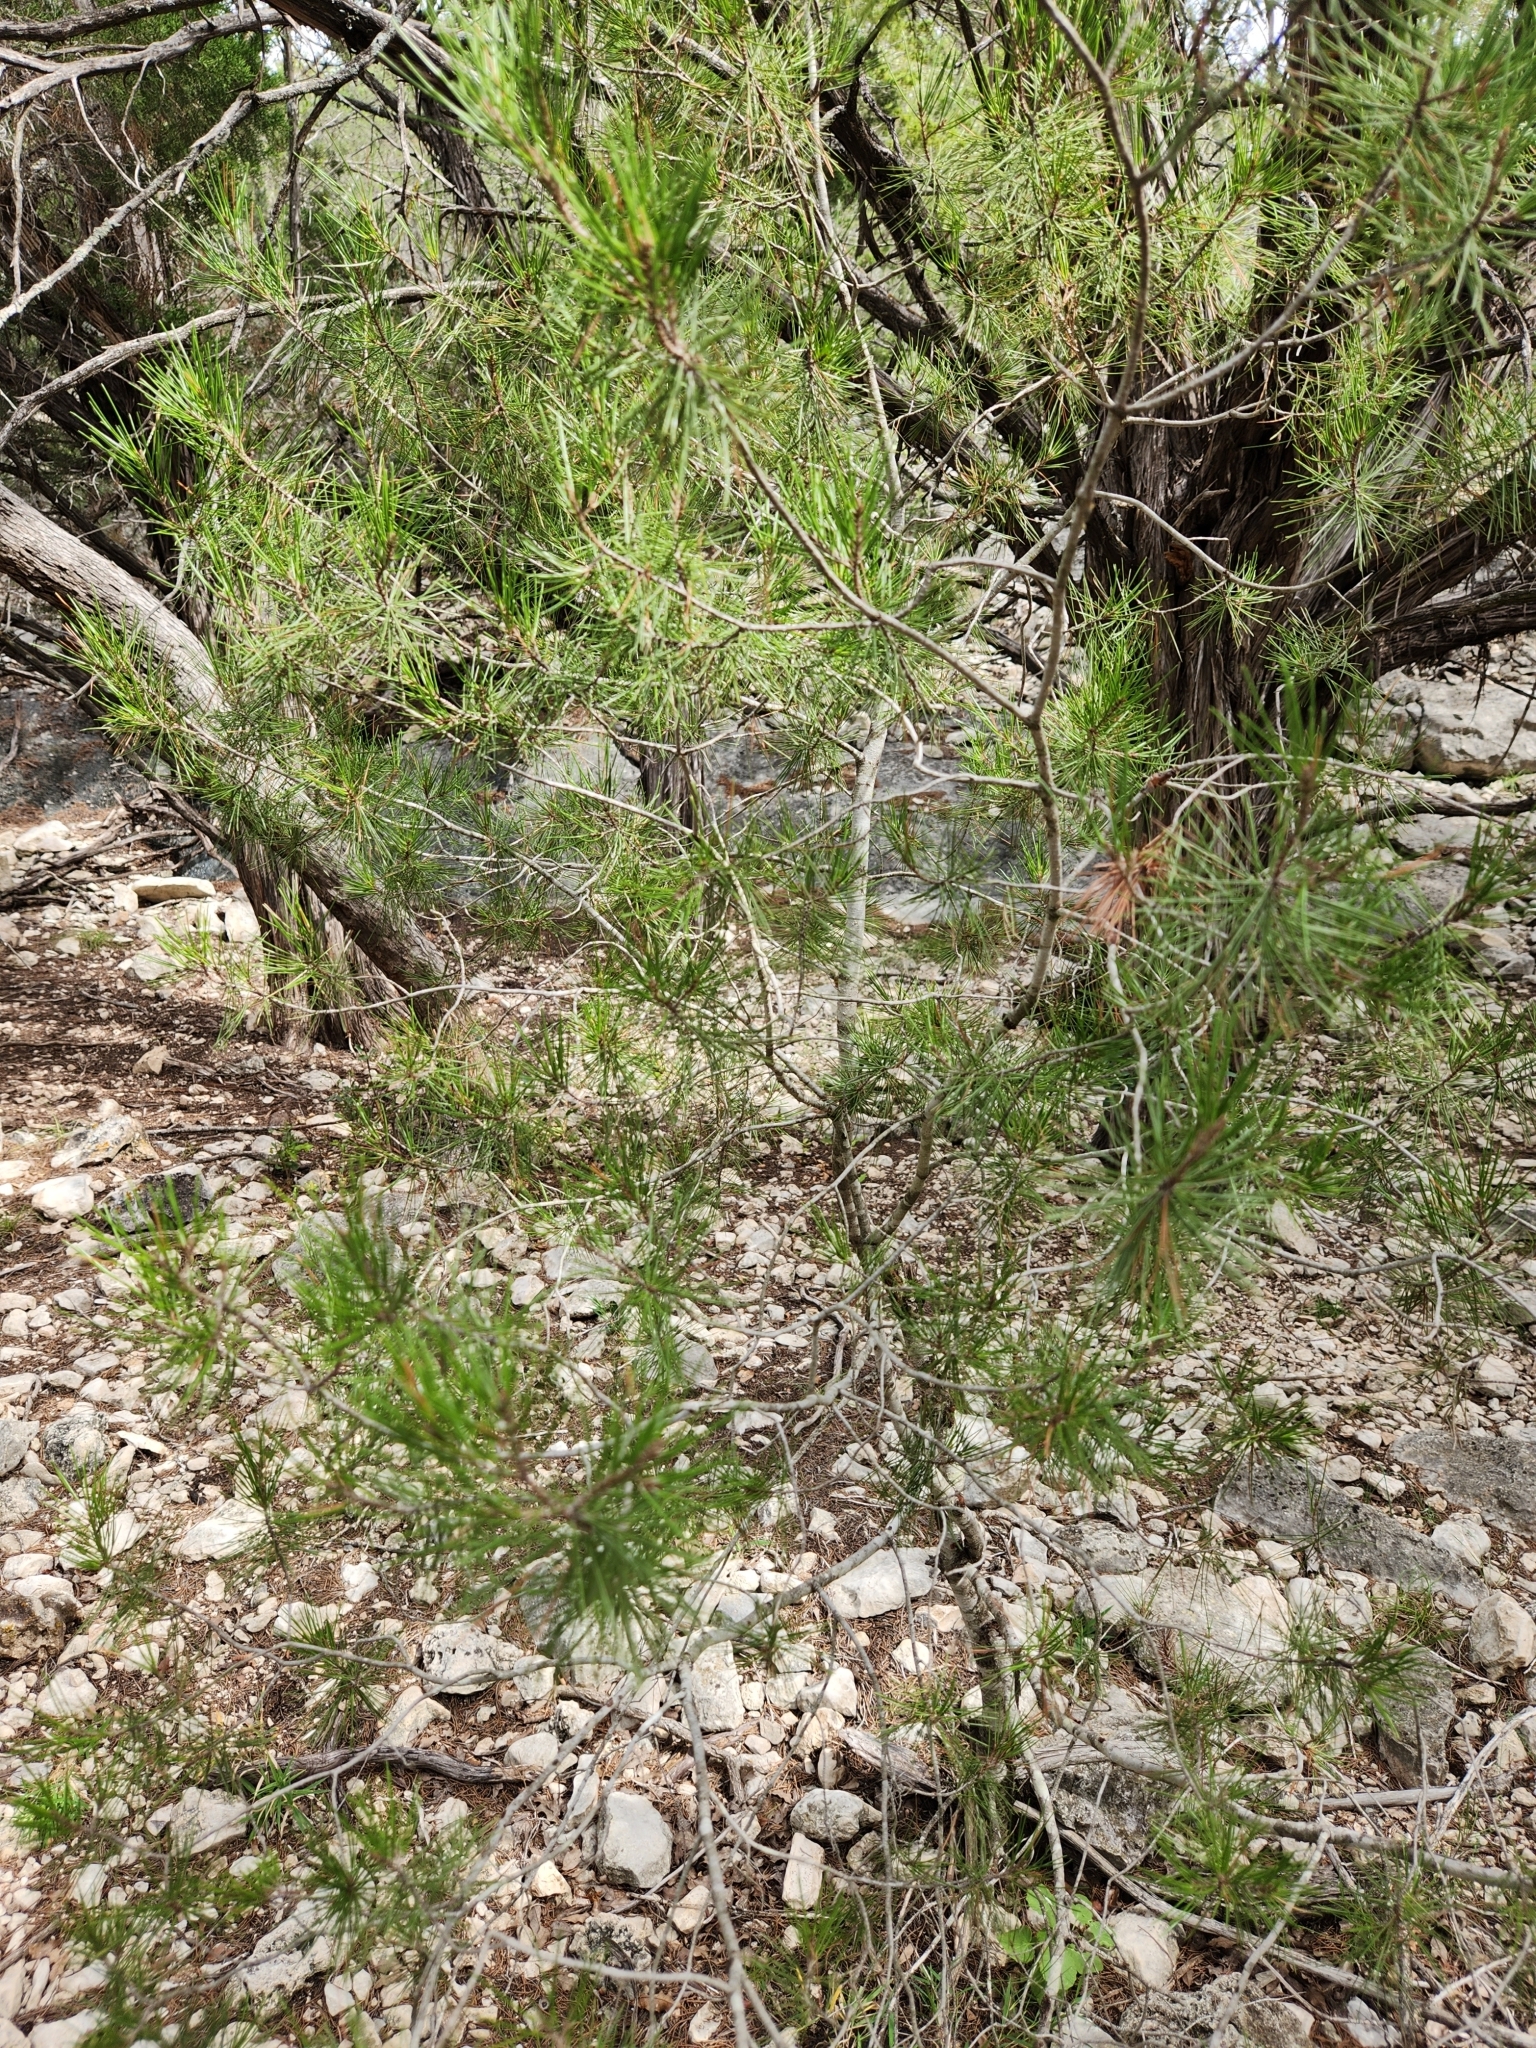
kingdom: Plantae
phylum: Tracheophyta
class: Pinopsida
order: Pinales
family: Pinaceae
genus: Pinus
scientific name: Pinus remota
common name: Nut pine
